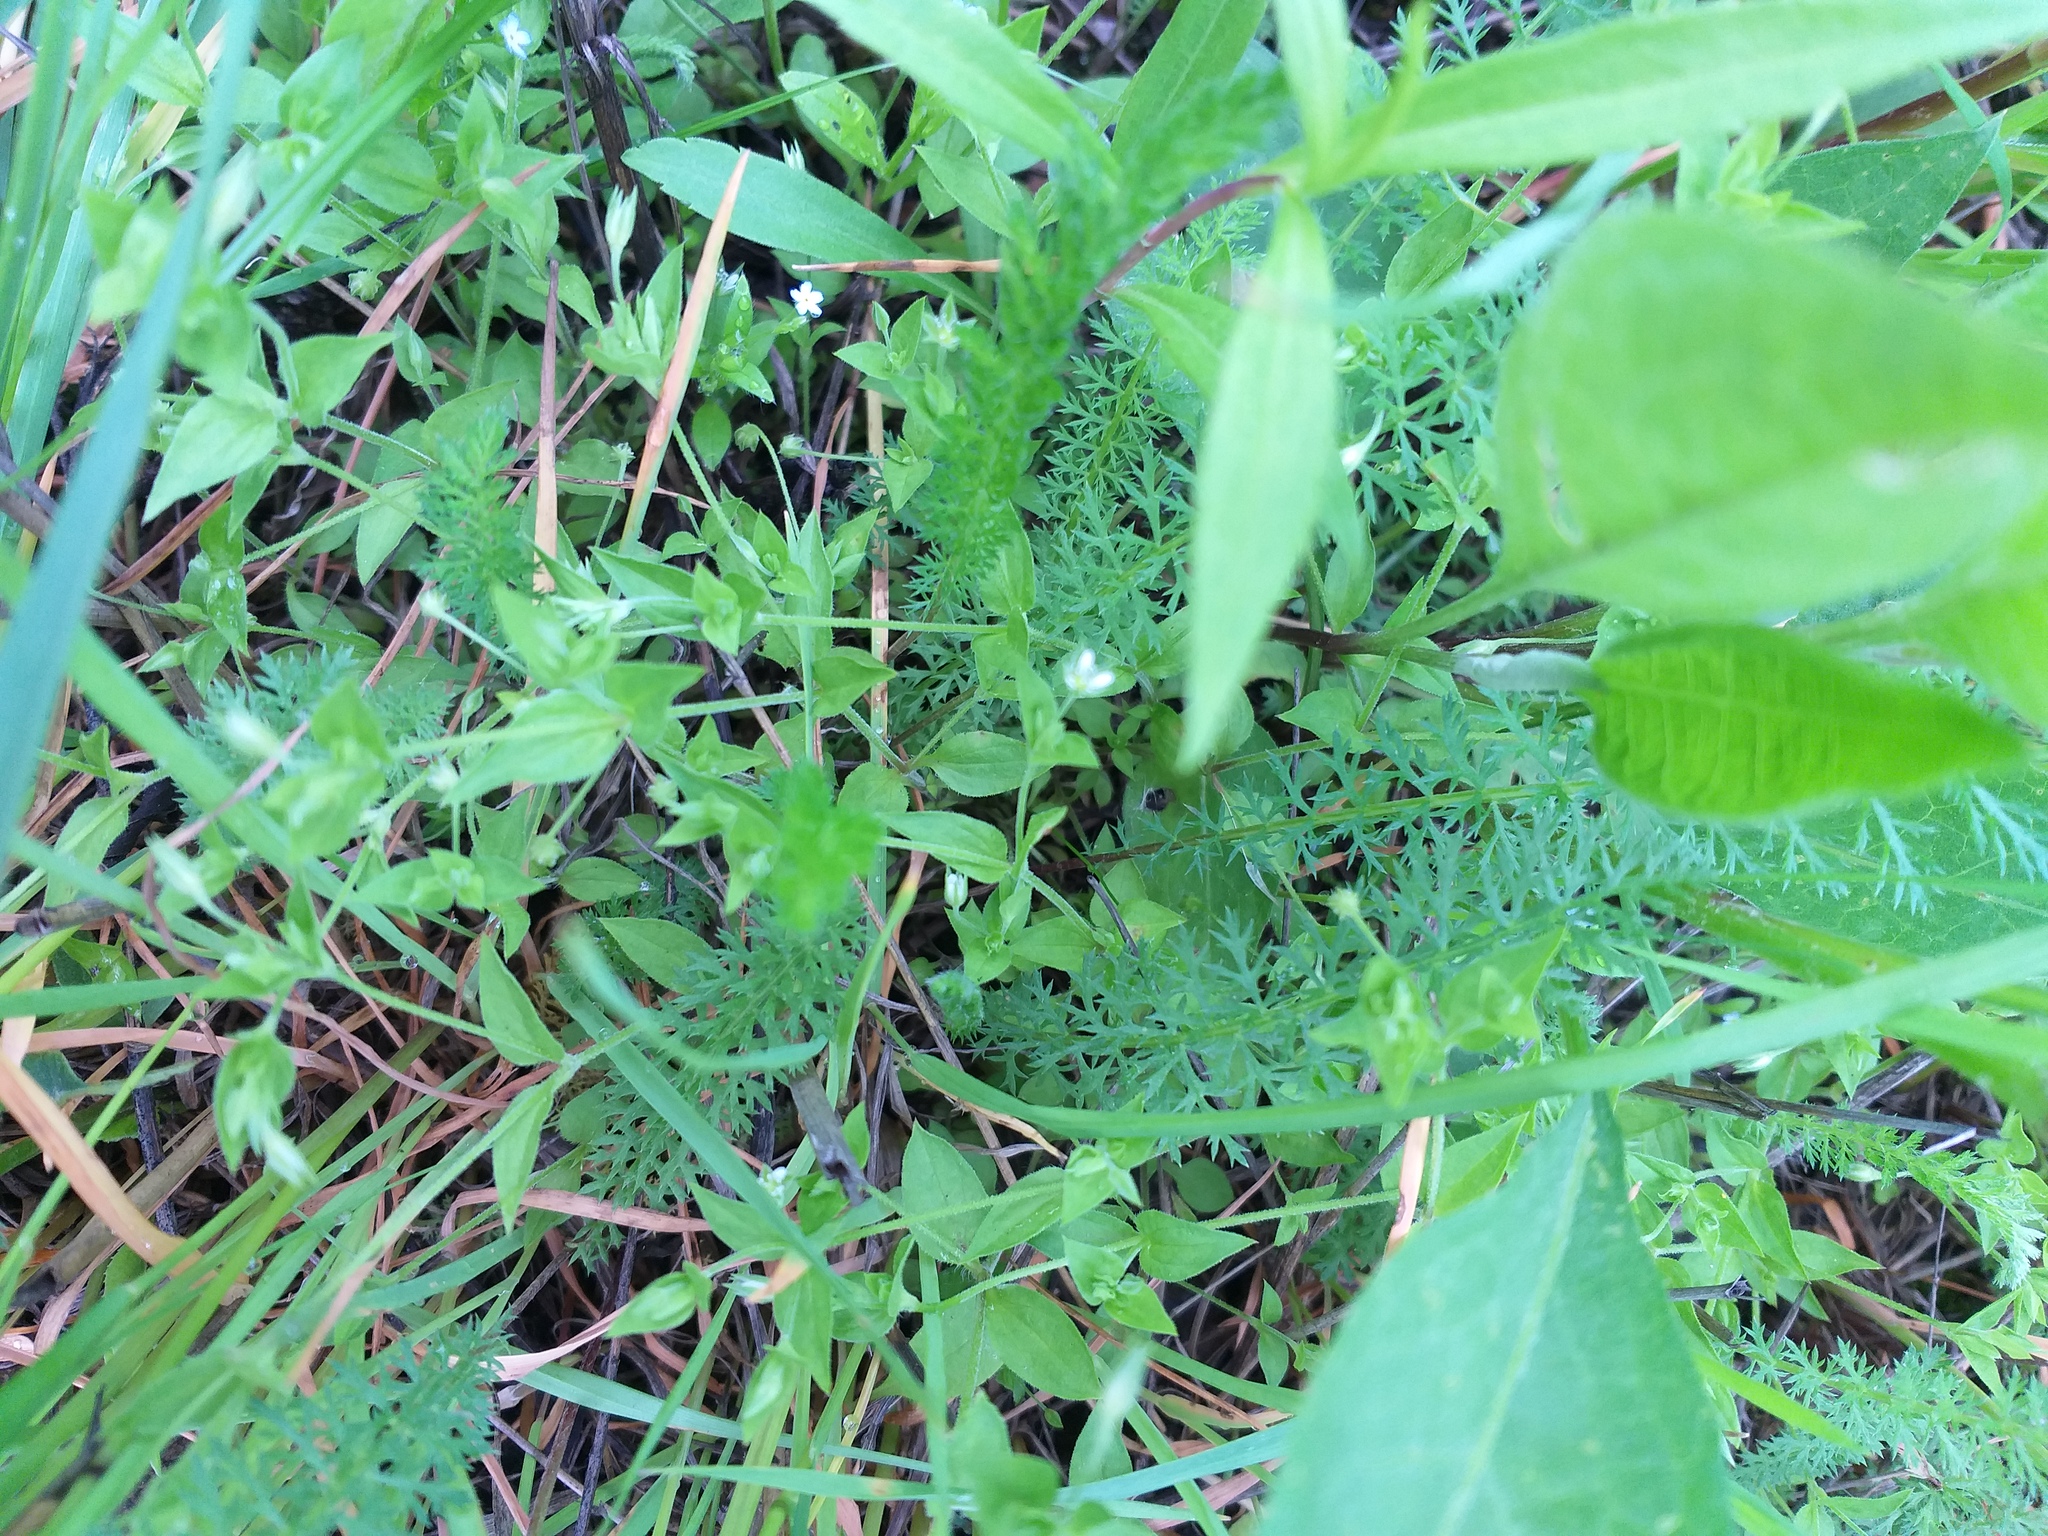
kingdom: Plantae
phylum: Tracheophyta
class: Magnoliopsida
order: Caryophyllales
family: Caryophyllaceae
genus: Moehringia
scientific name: Moehringia trinervia
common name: Three-nerved sandwort
